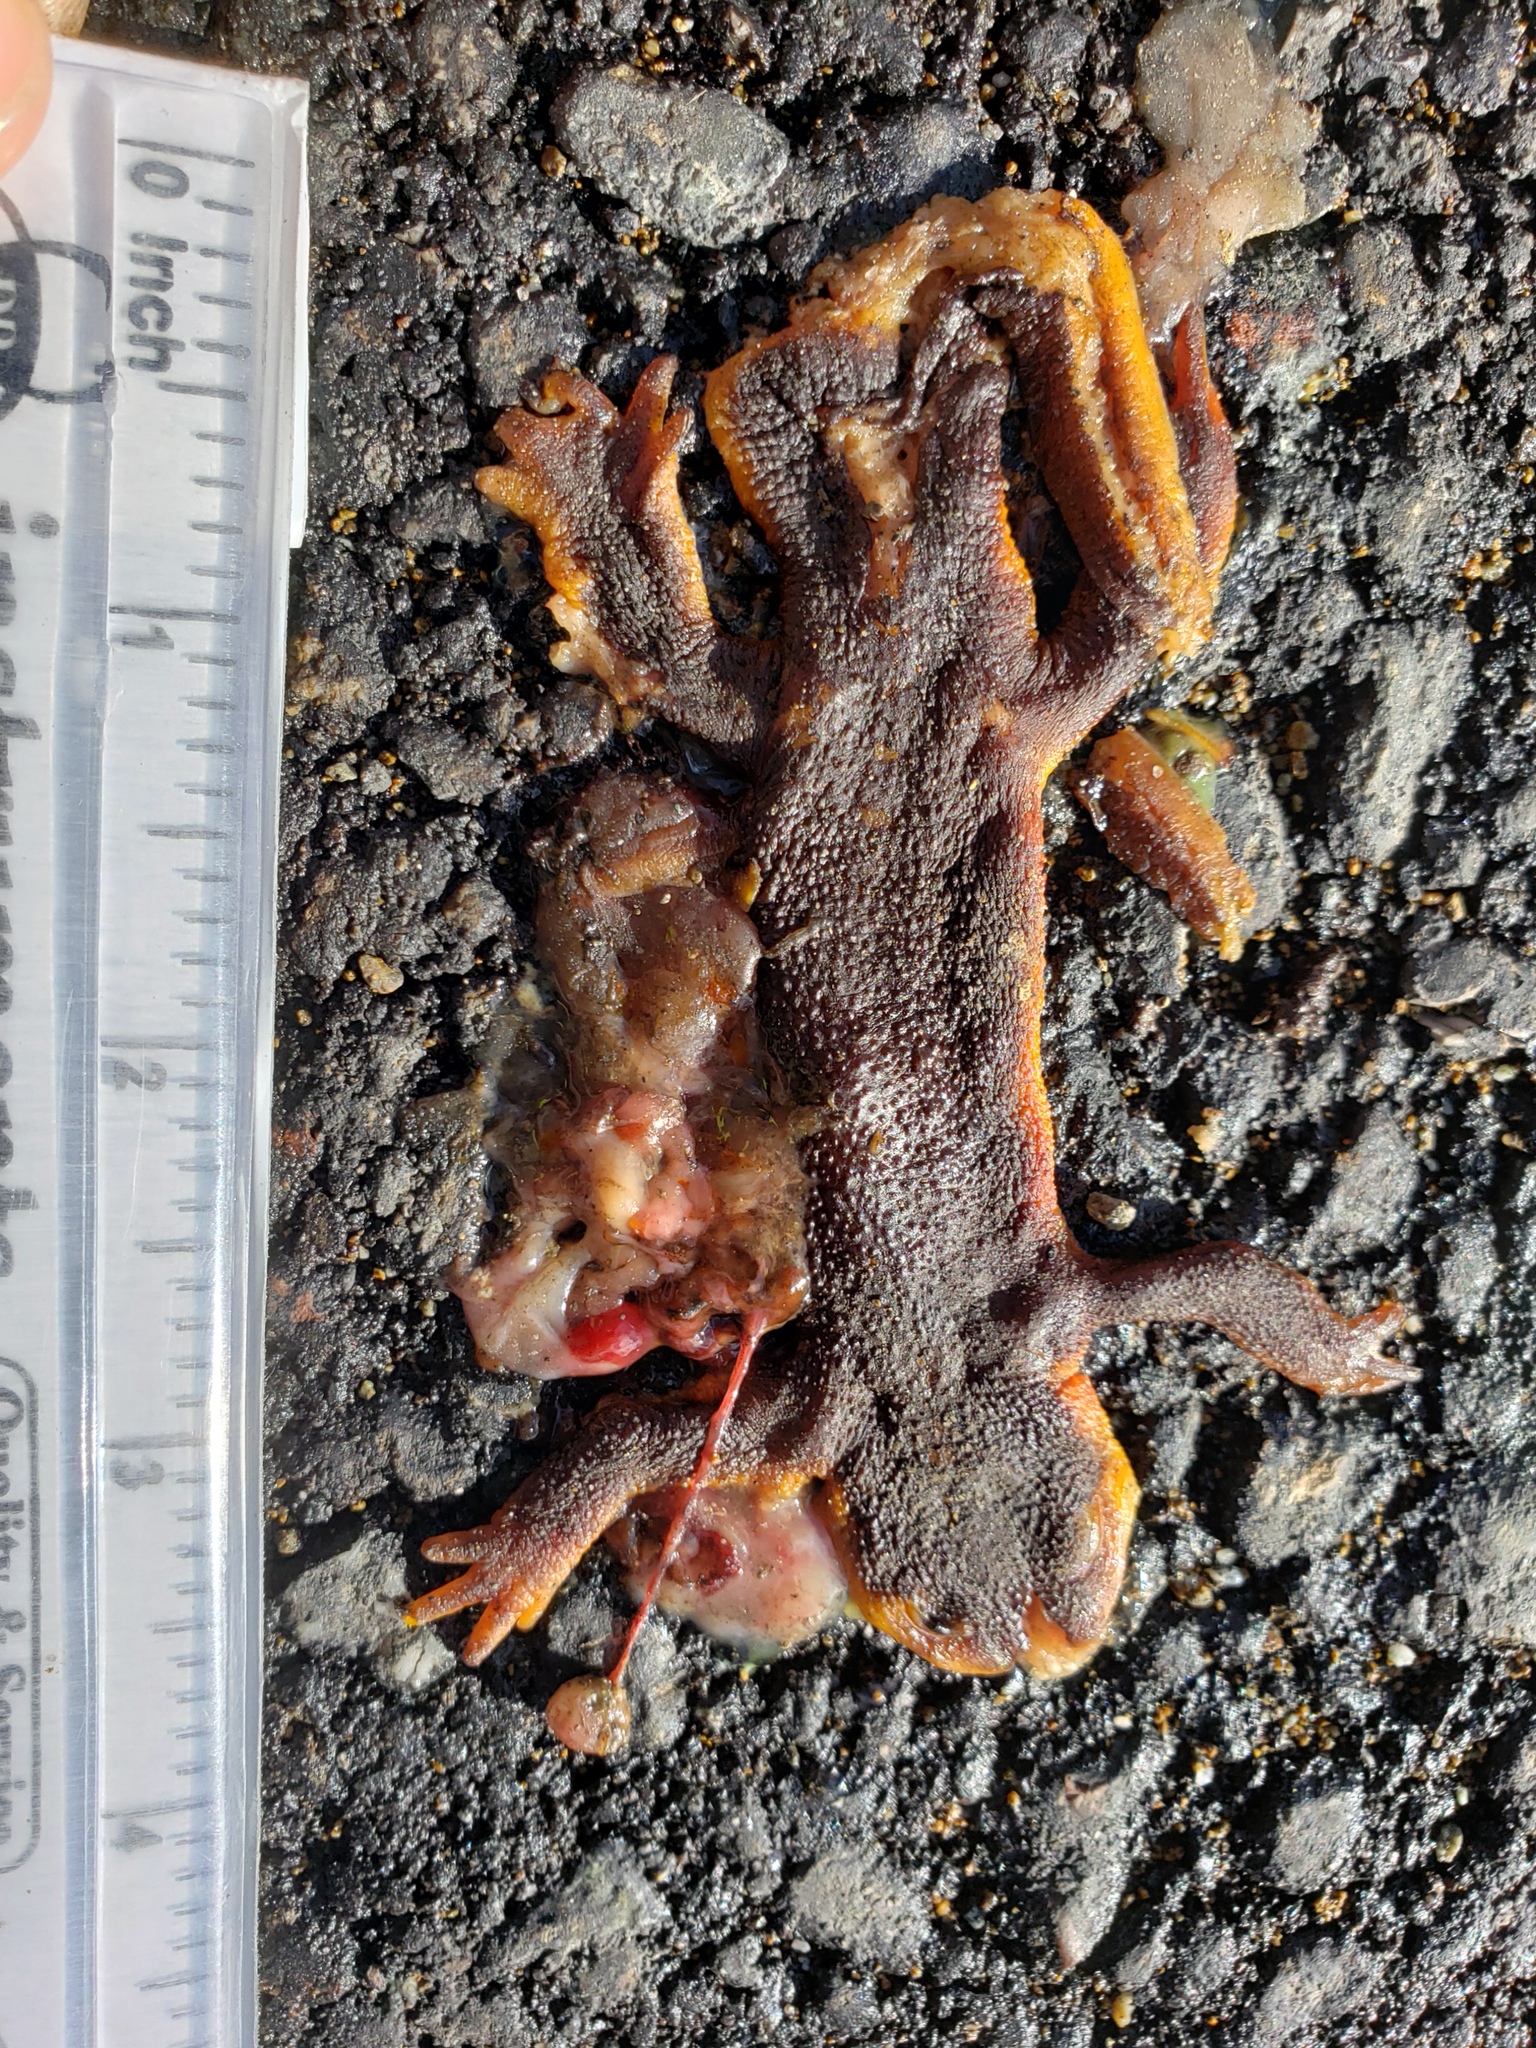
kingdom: Animalia
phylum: Chordata
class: Amphibia
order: Caudata
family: Salamandridae
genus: Taricha
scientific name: Taricha
